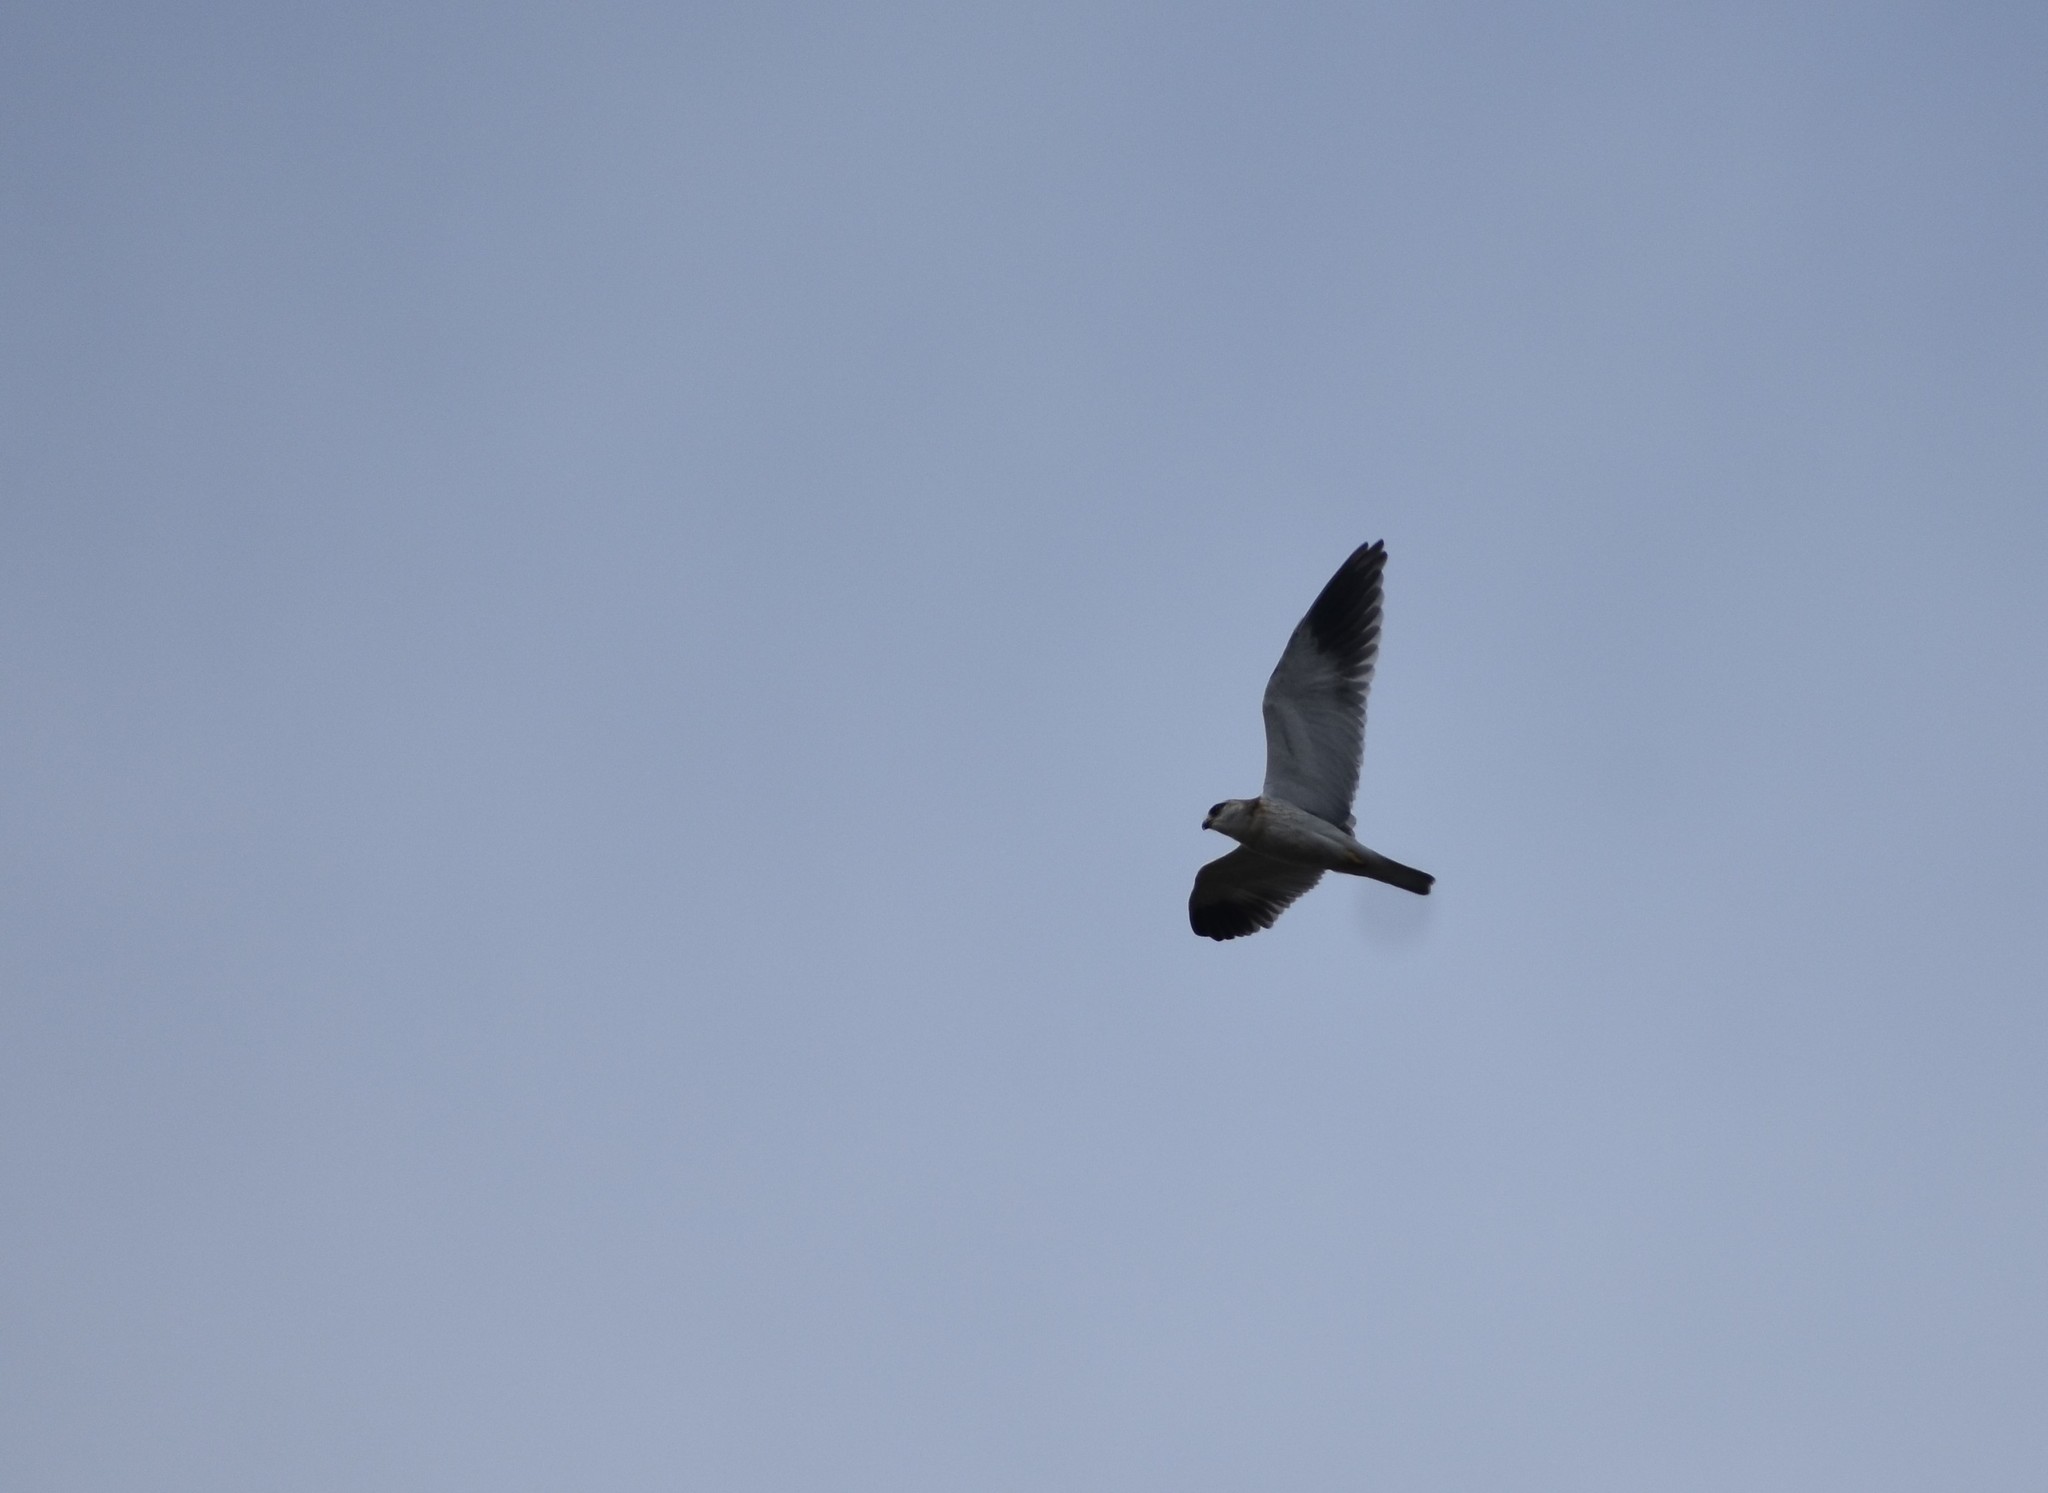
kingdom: Animalia
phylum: Chordata
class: Aves
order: Accipitriformes
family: Accipitridae
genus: Elanus
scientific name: Elanus caeruleus
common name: Black-winged kite
